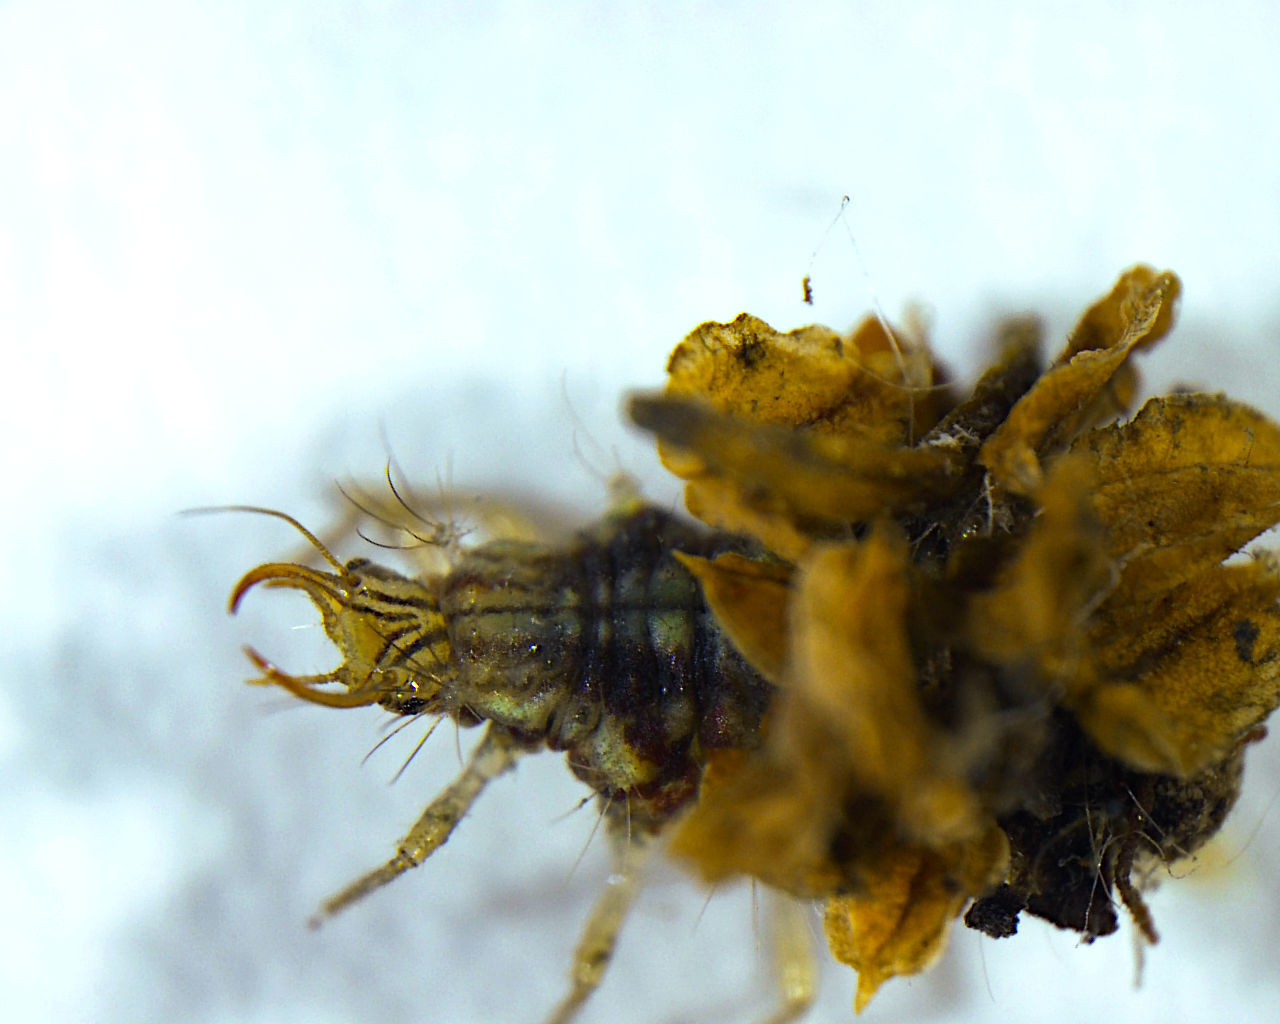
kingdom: Animalia
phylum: Arthropoda
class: Insecta
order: Neuroptera
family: Chrysopidae
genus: Mallada
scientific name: Mallada basalis
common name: Green lacewing
